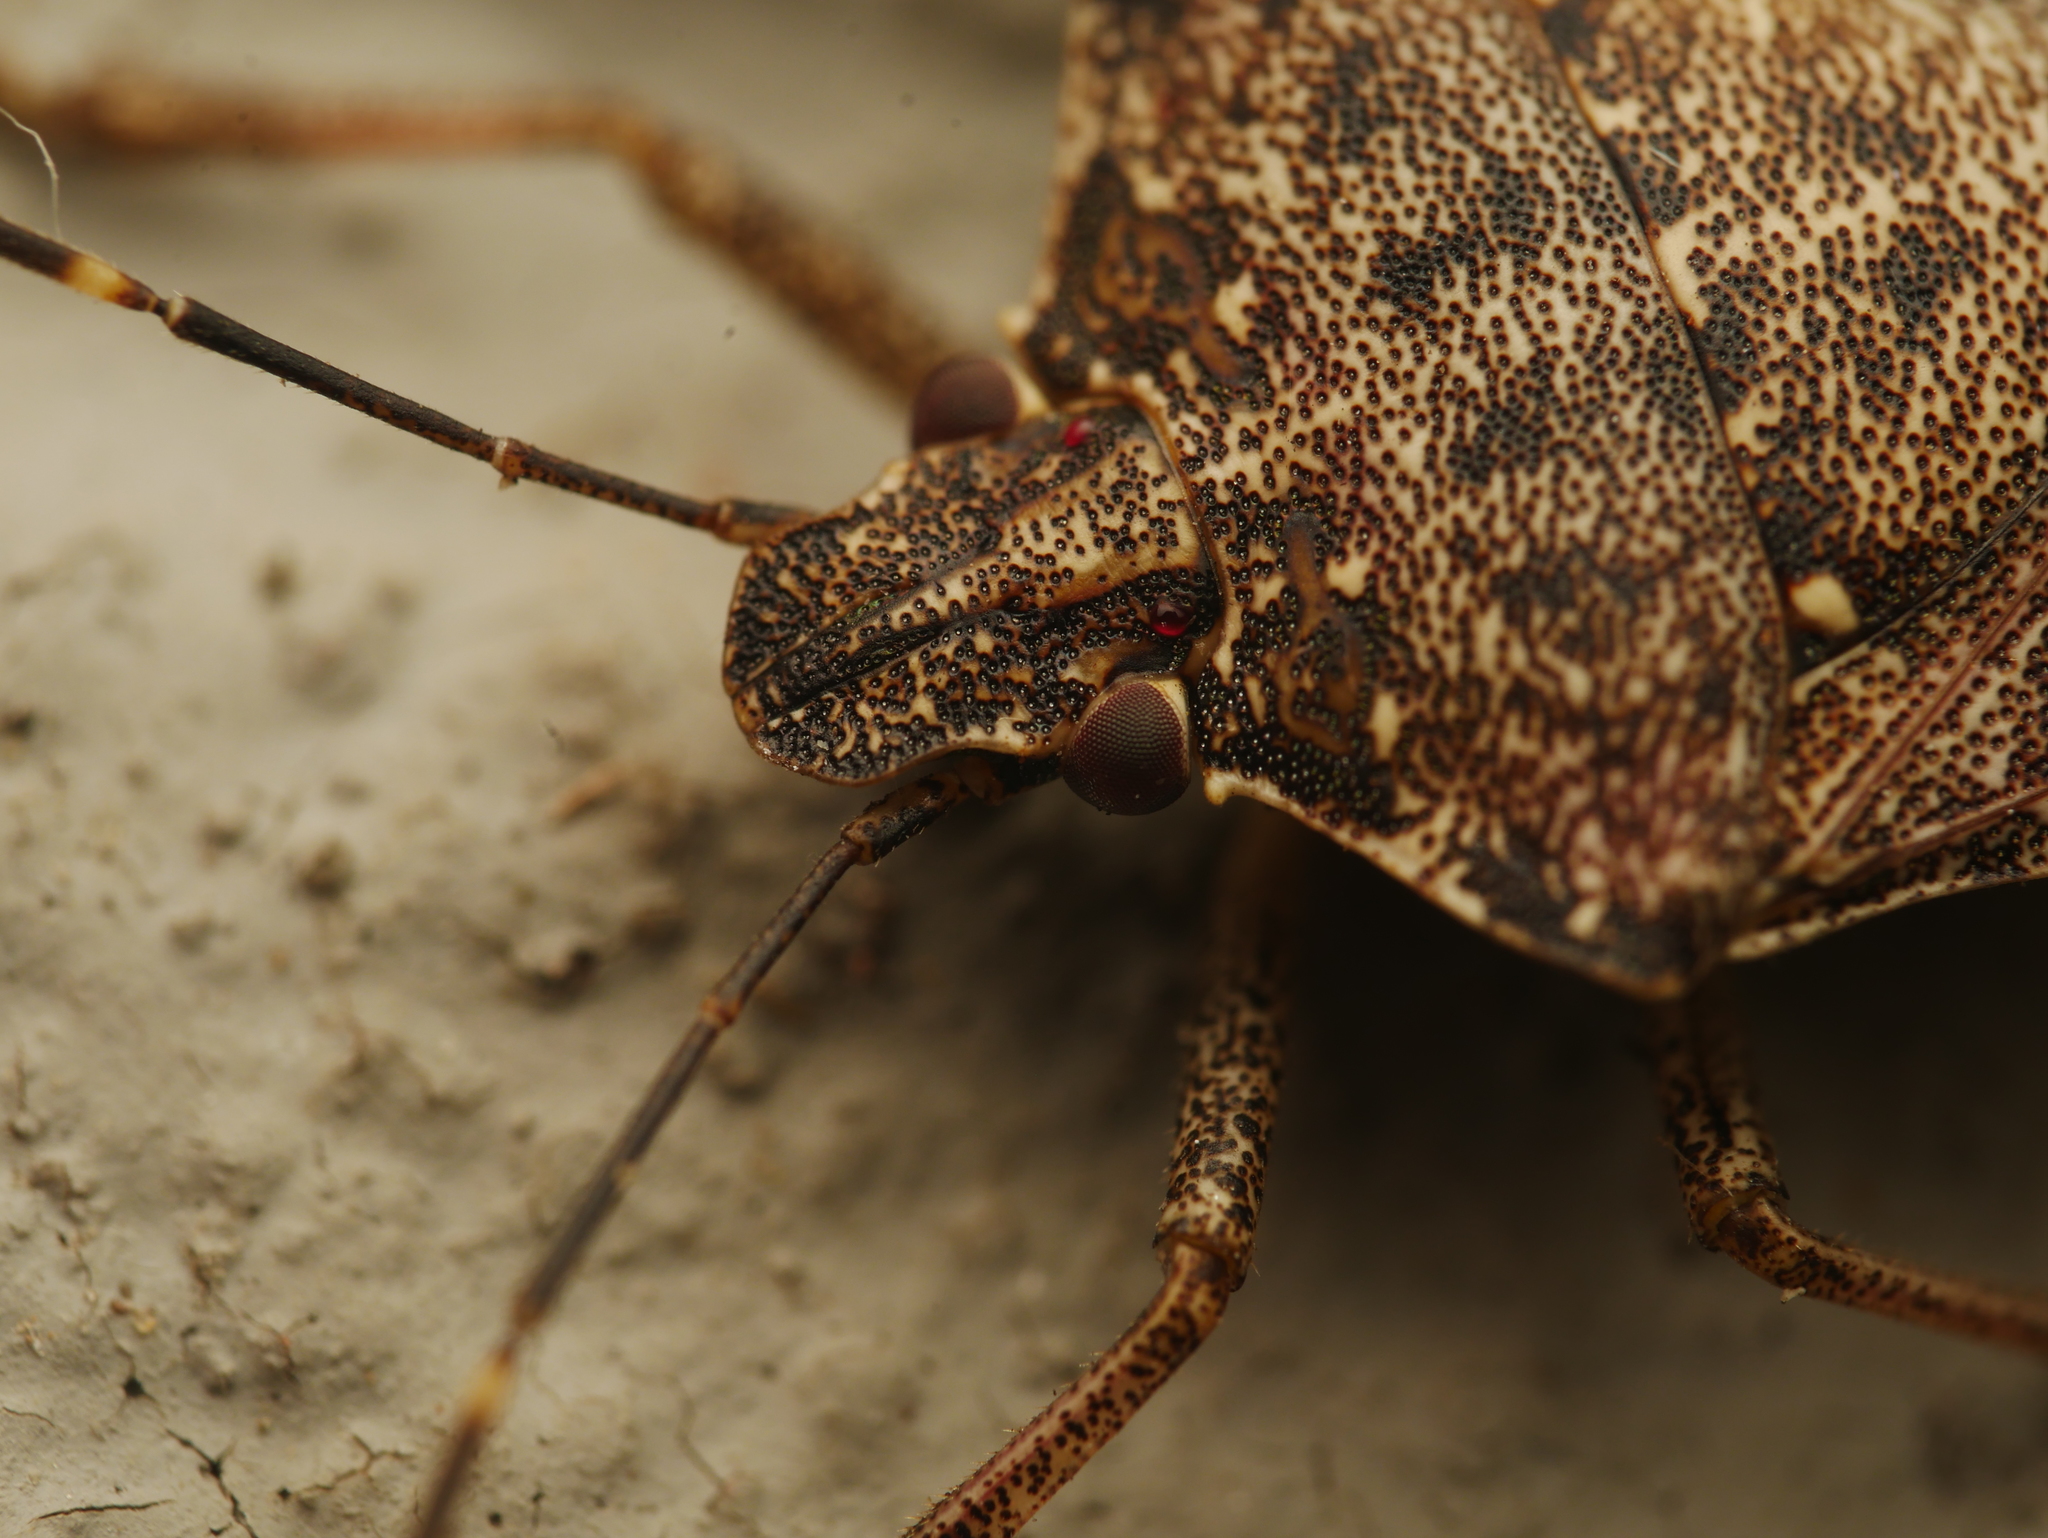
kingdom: Animalia
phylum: Arthropoda
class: Insecta
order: Hemiptera
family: Pentatomidae
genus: Halyomorpha
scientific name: Halyomorpha halys
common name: Brown marmorated stink bug
